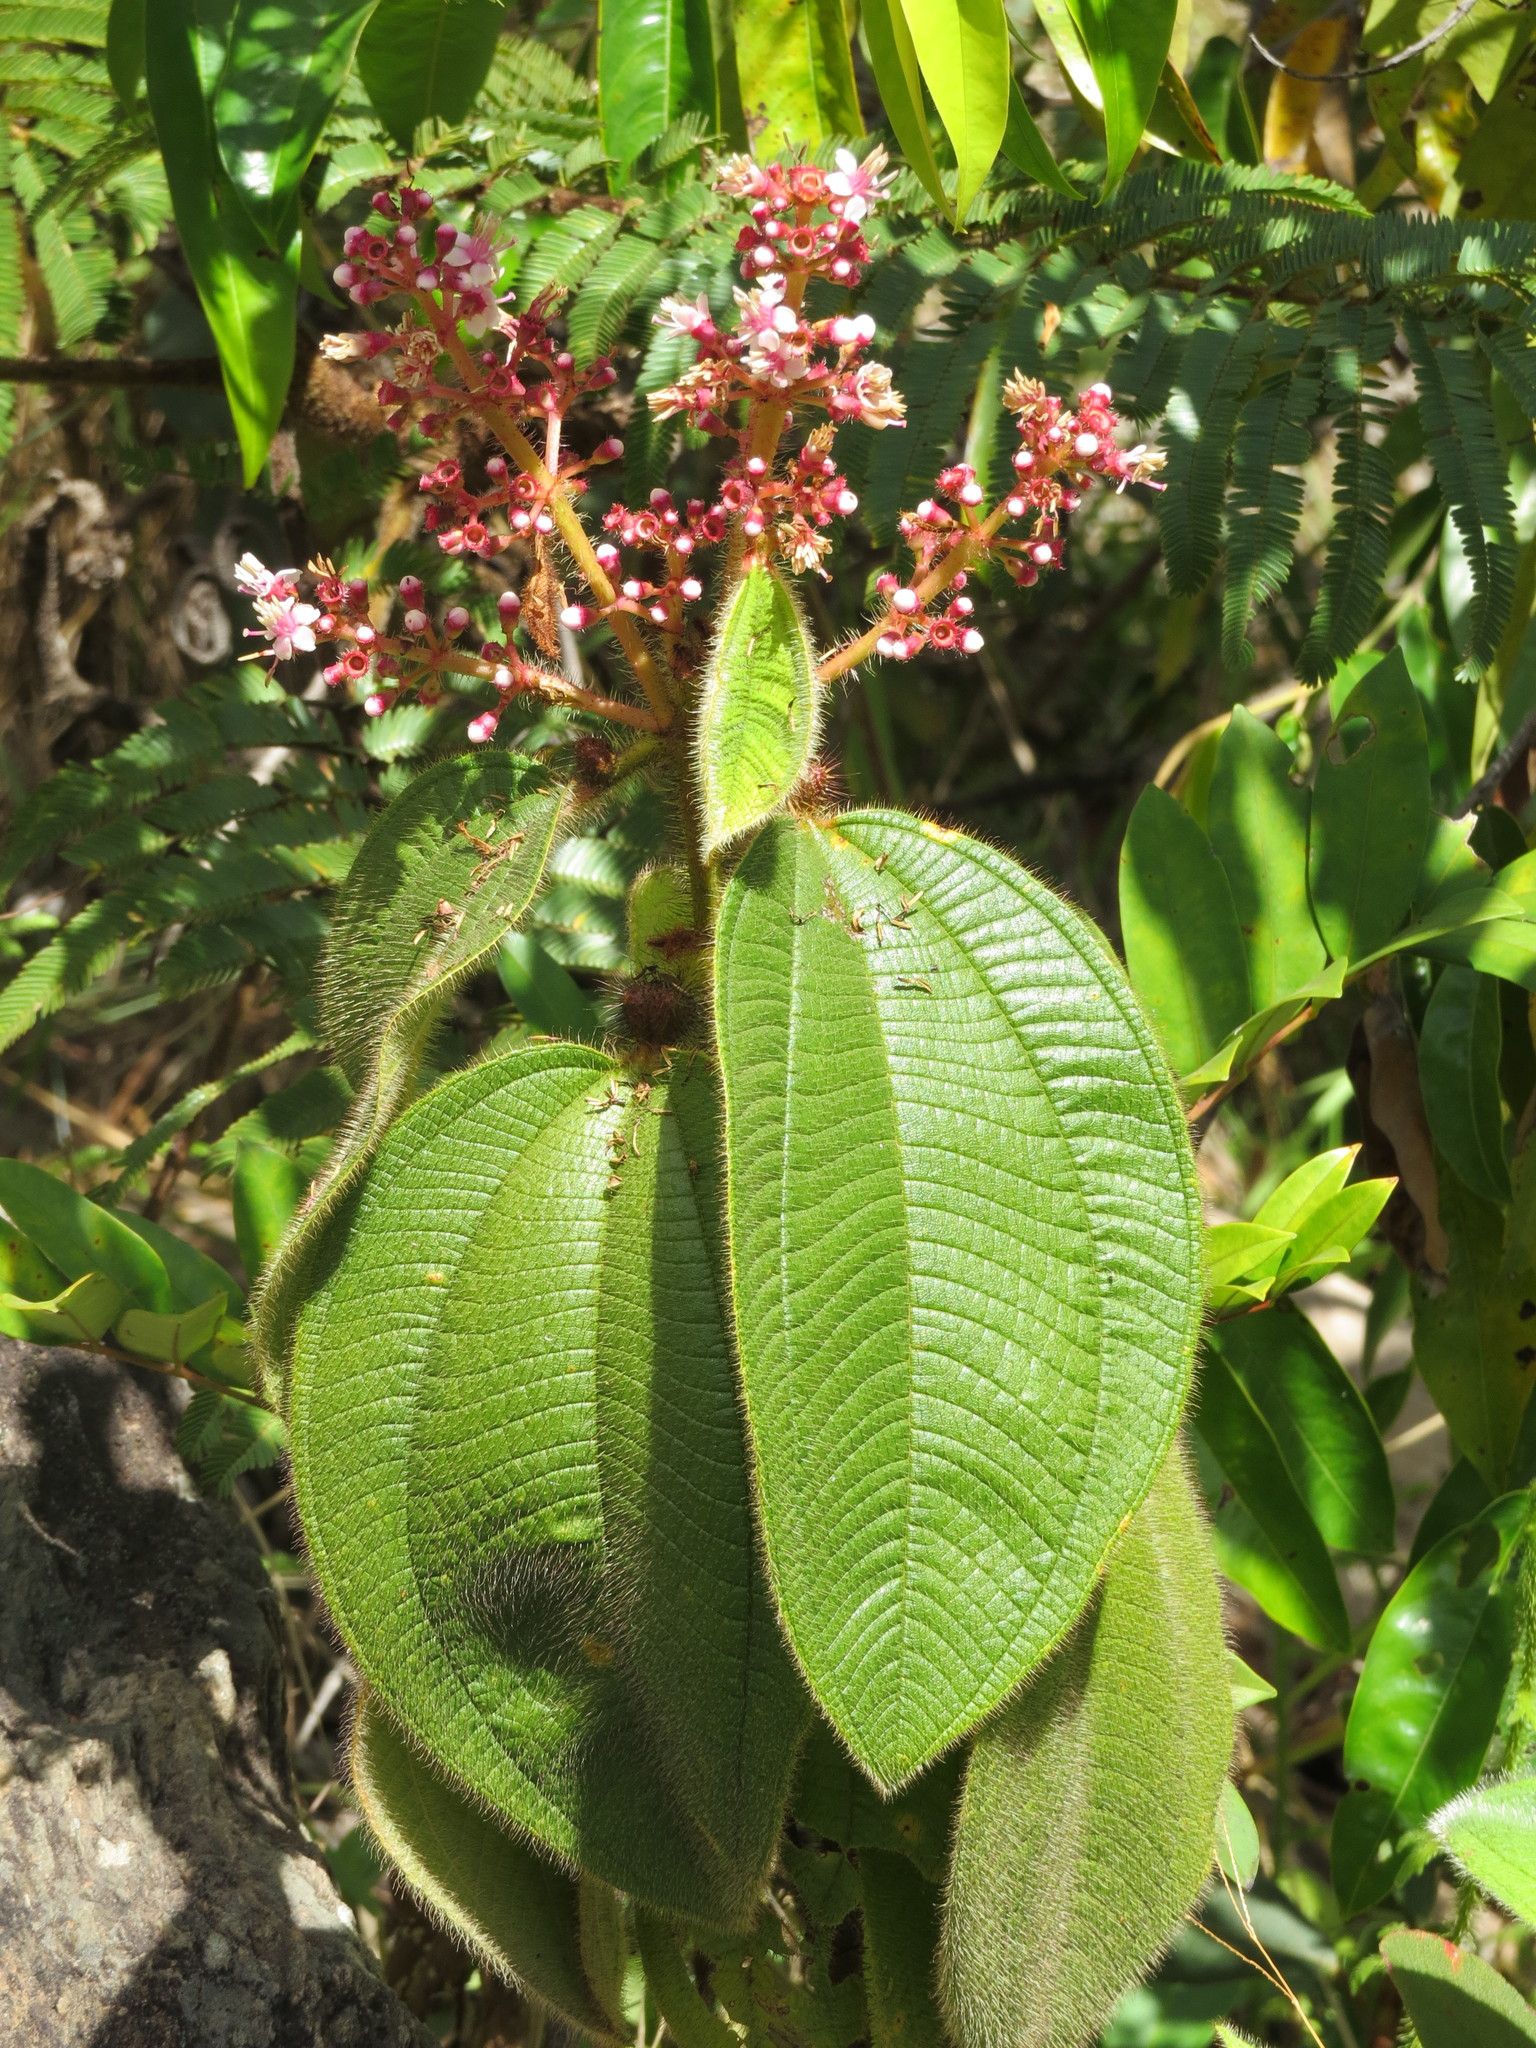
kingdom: Plantae
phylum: Tracheophyta
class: Magnoliopsida
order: Myrtales
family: Melastomataceae
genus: Miconia
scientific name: Miconia tococa
